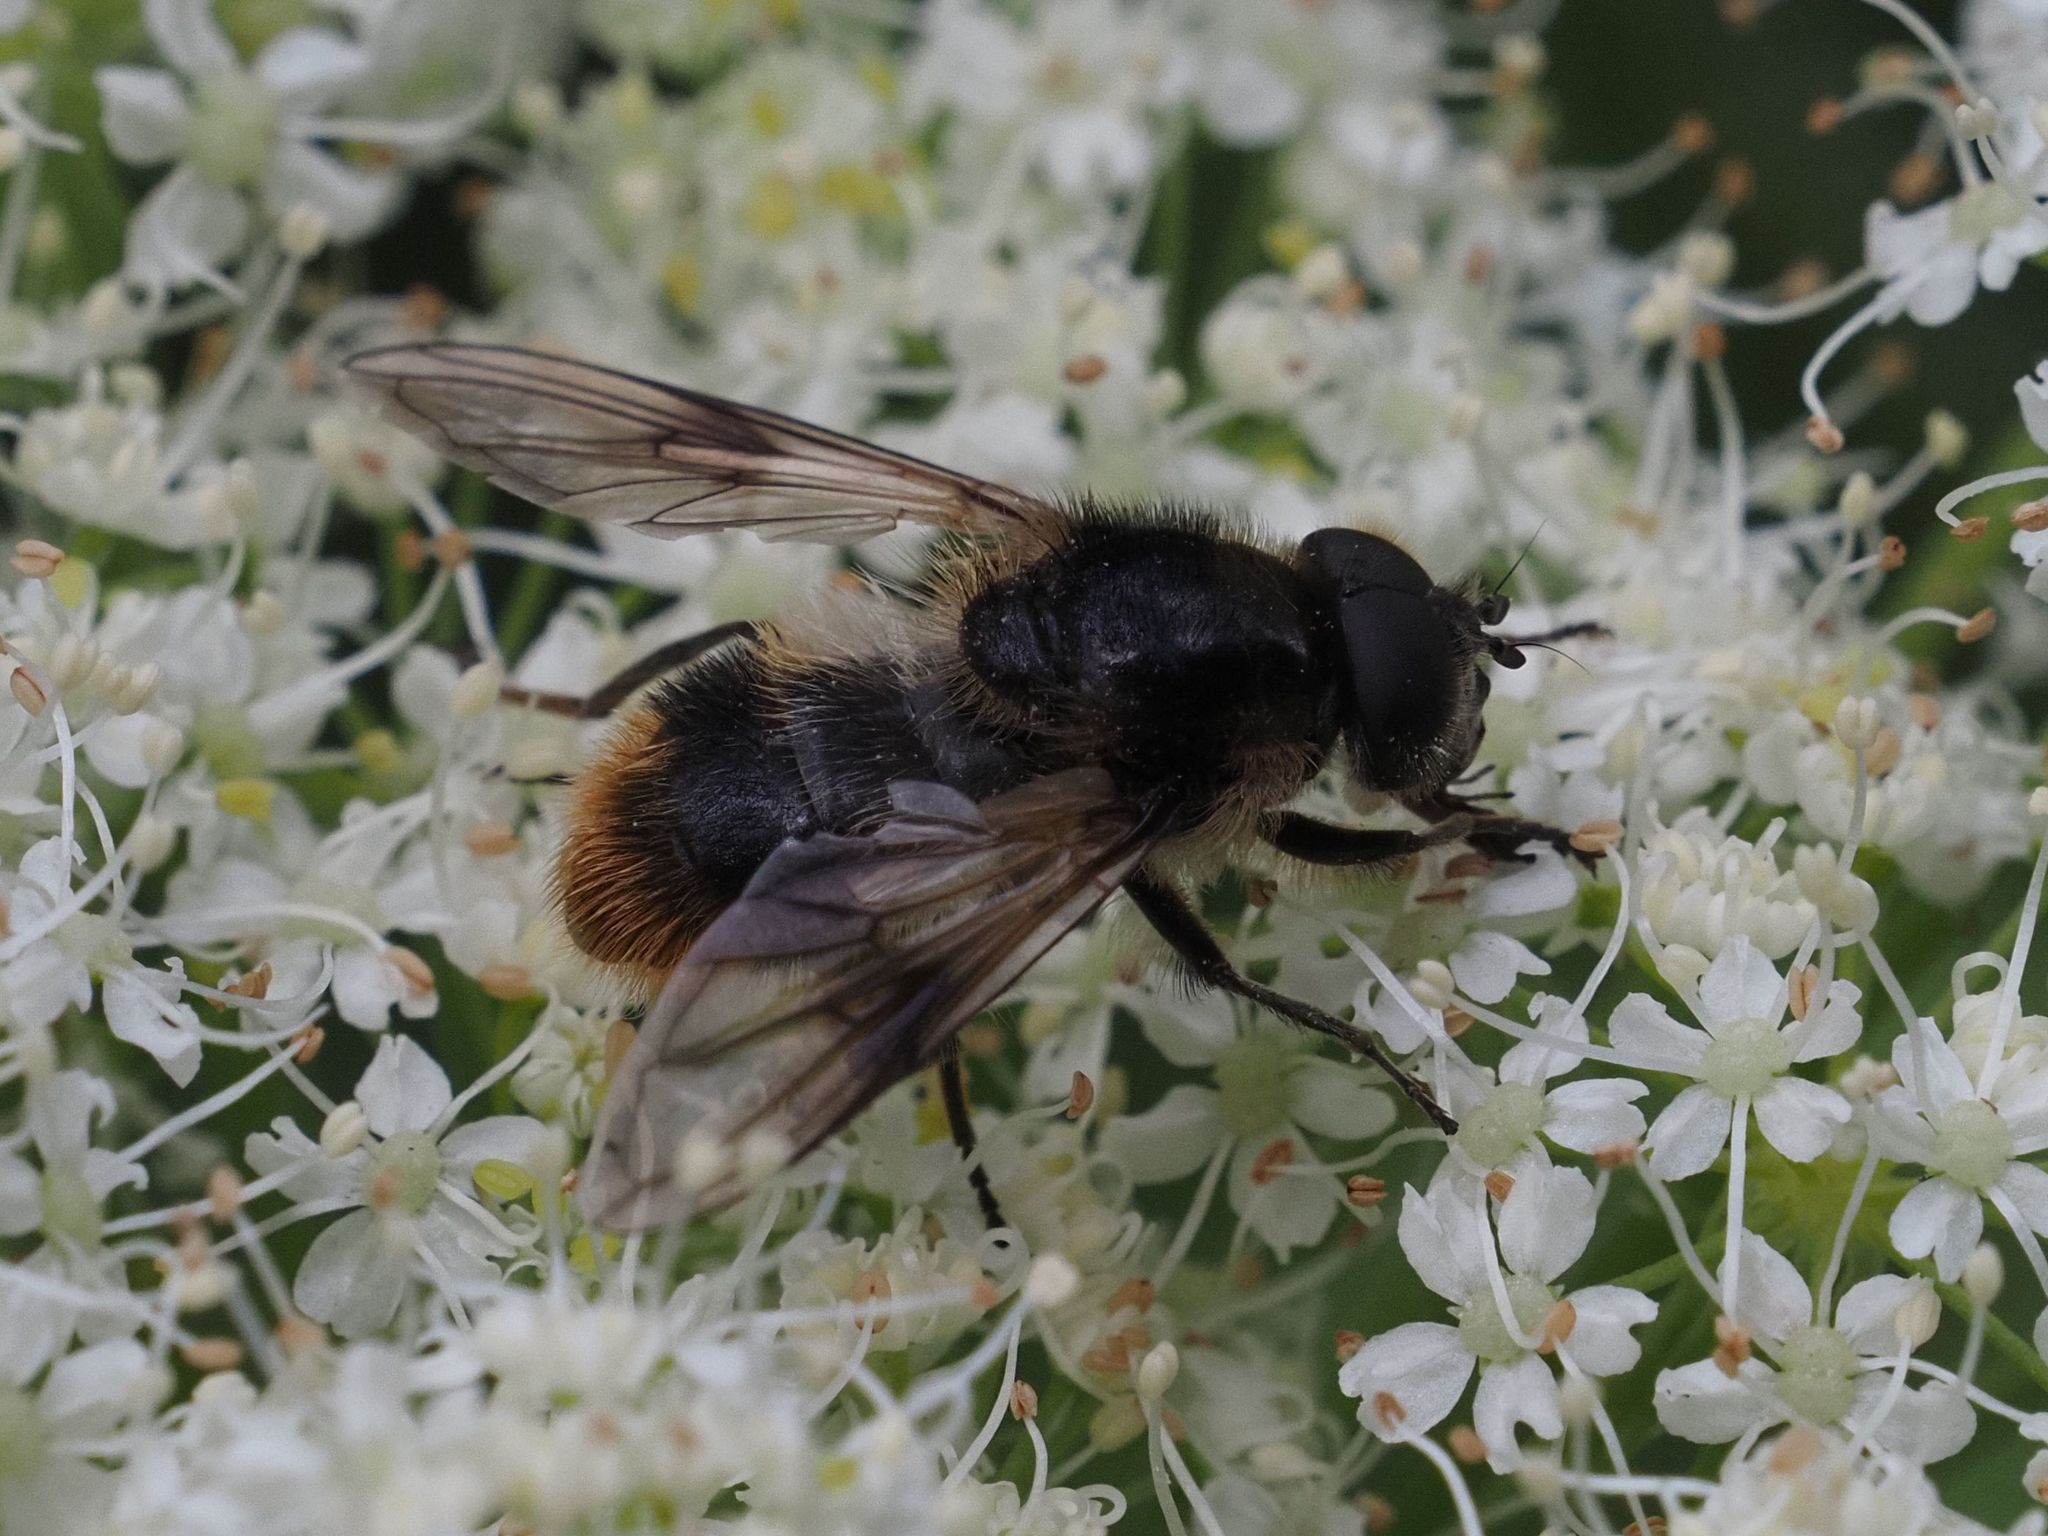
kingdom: Animalia
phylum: Arthropoda
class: Insecta
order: Diptera
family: Syrphidae
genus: Cheilosia
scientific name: Cheilosia illustrata
